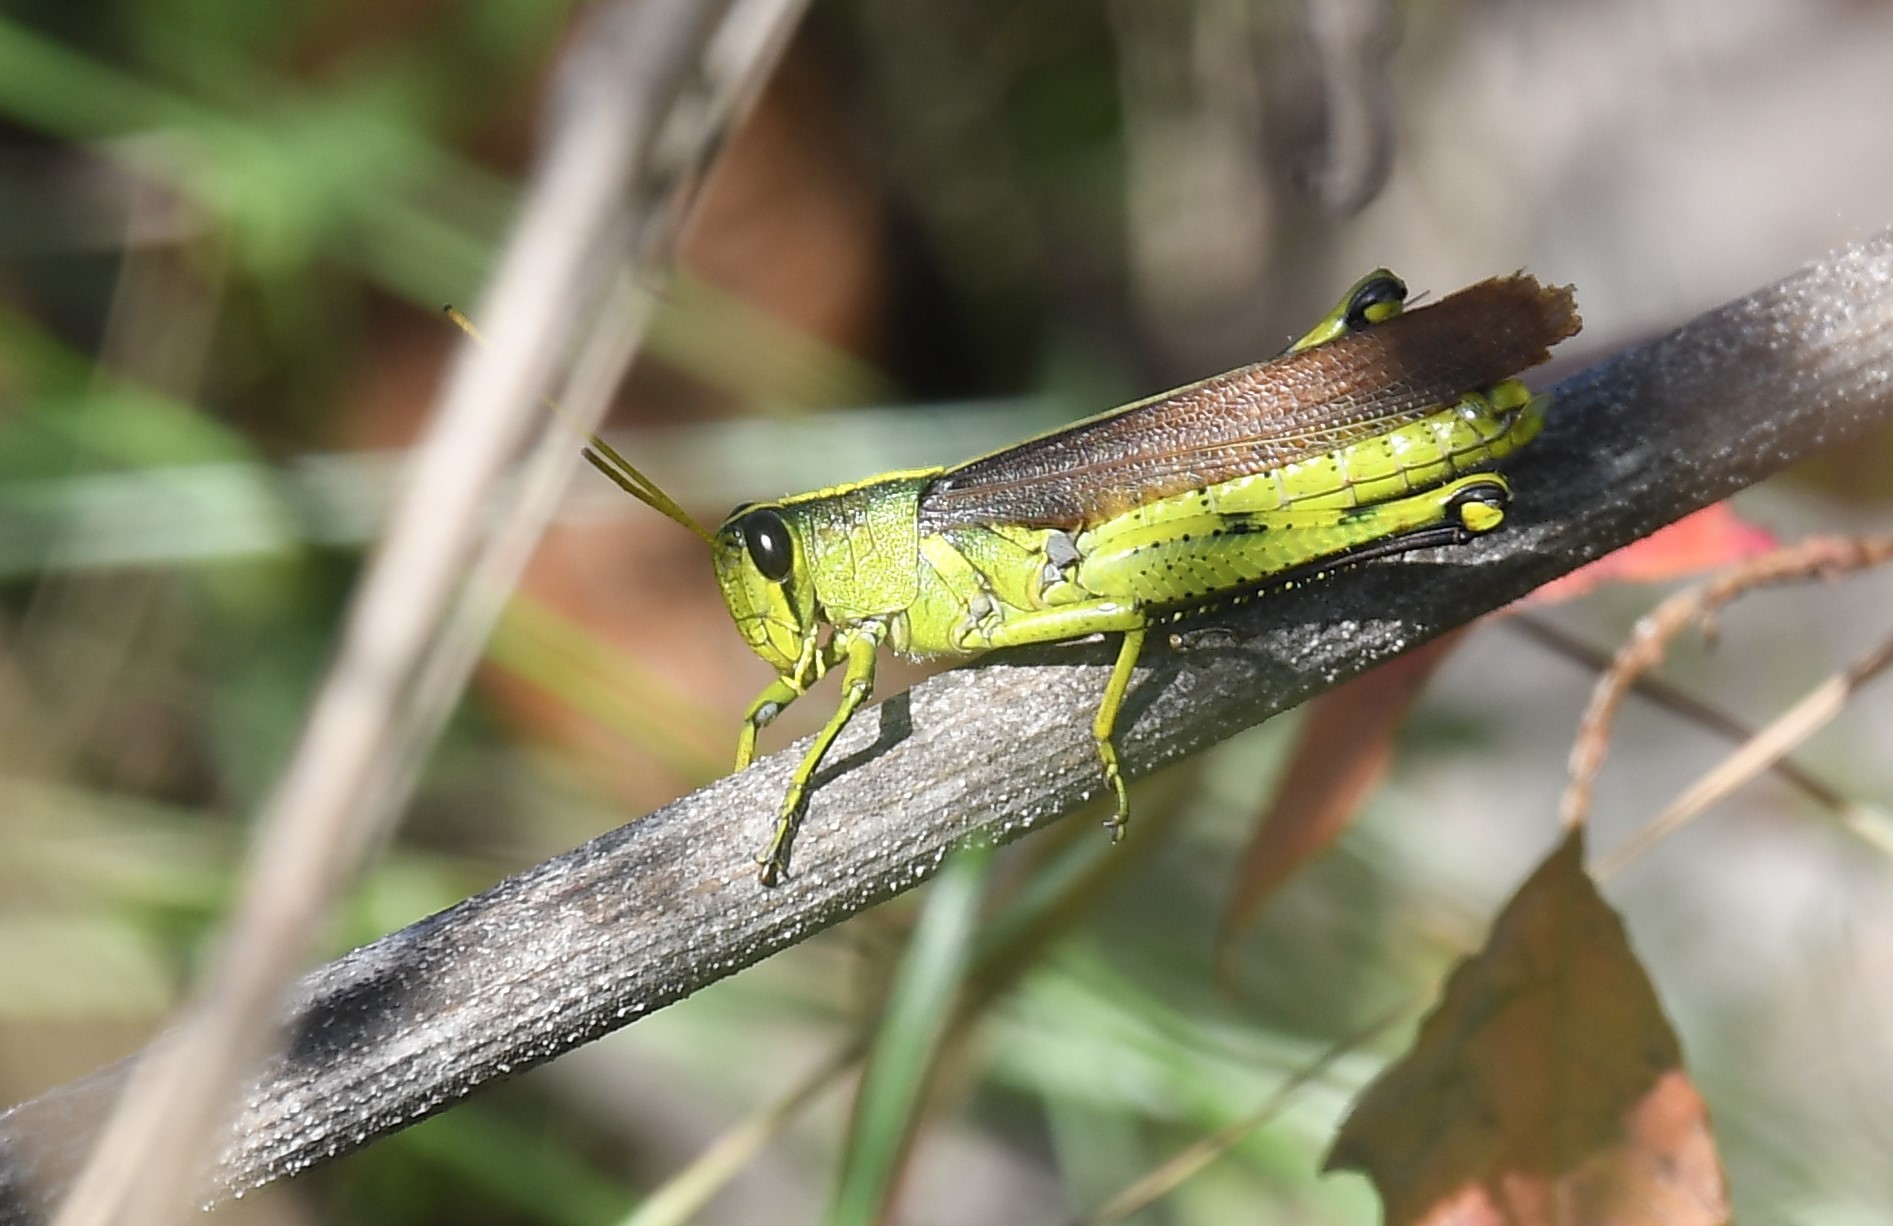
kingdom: Animalia
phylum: Arthropoda
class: Insecta
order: Orthoptera
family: Acrididae
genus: Schistocerca
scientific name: Schistocerca obscura
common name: Obscure bird grasshopper
